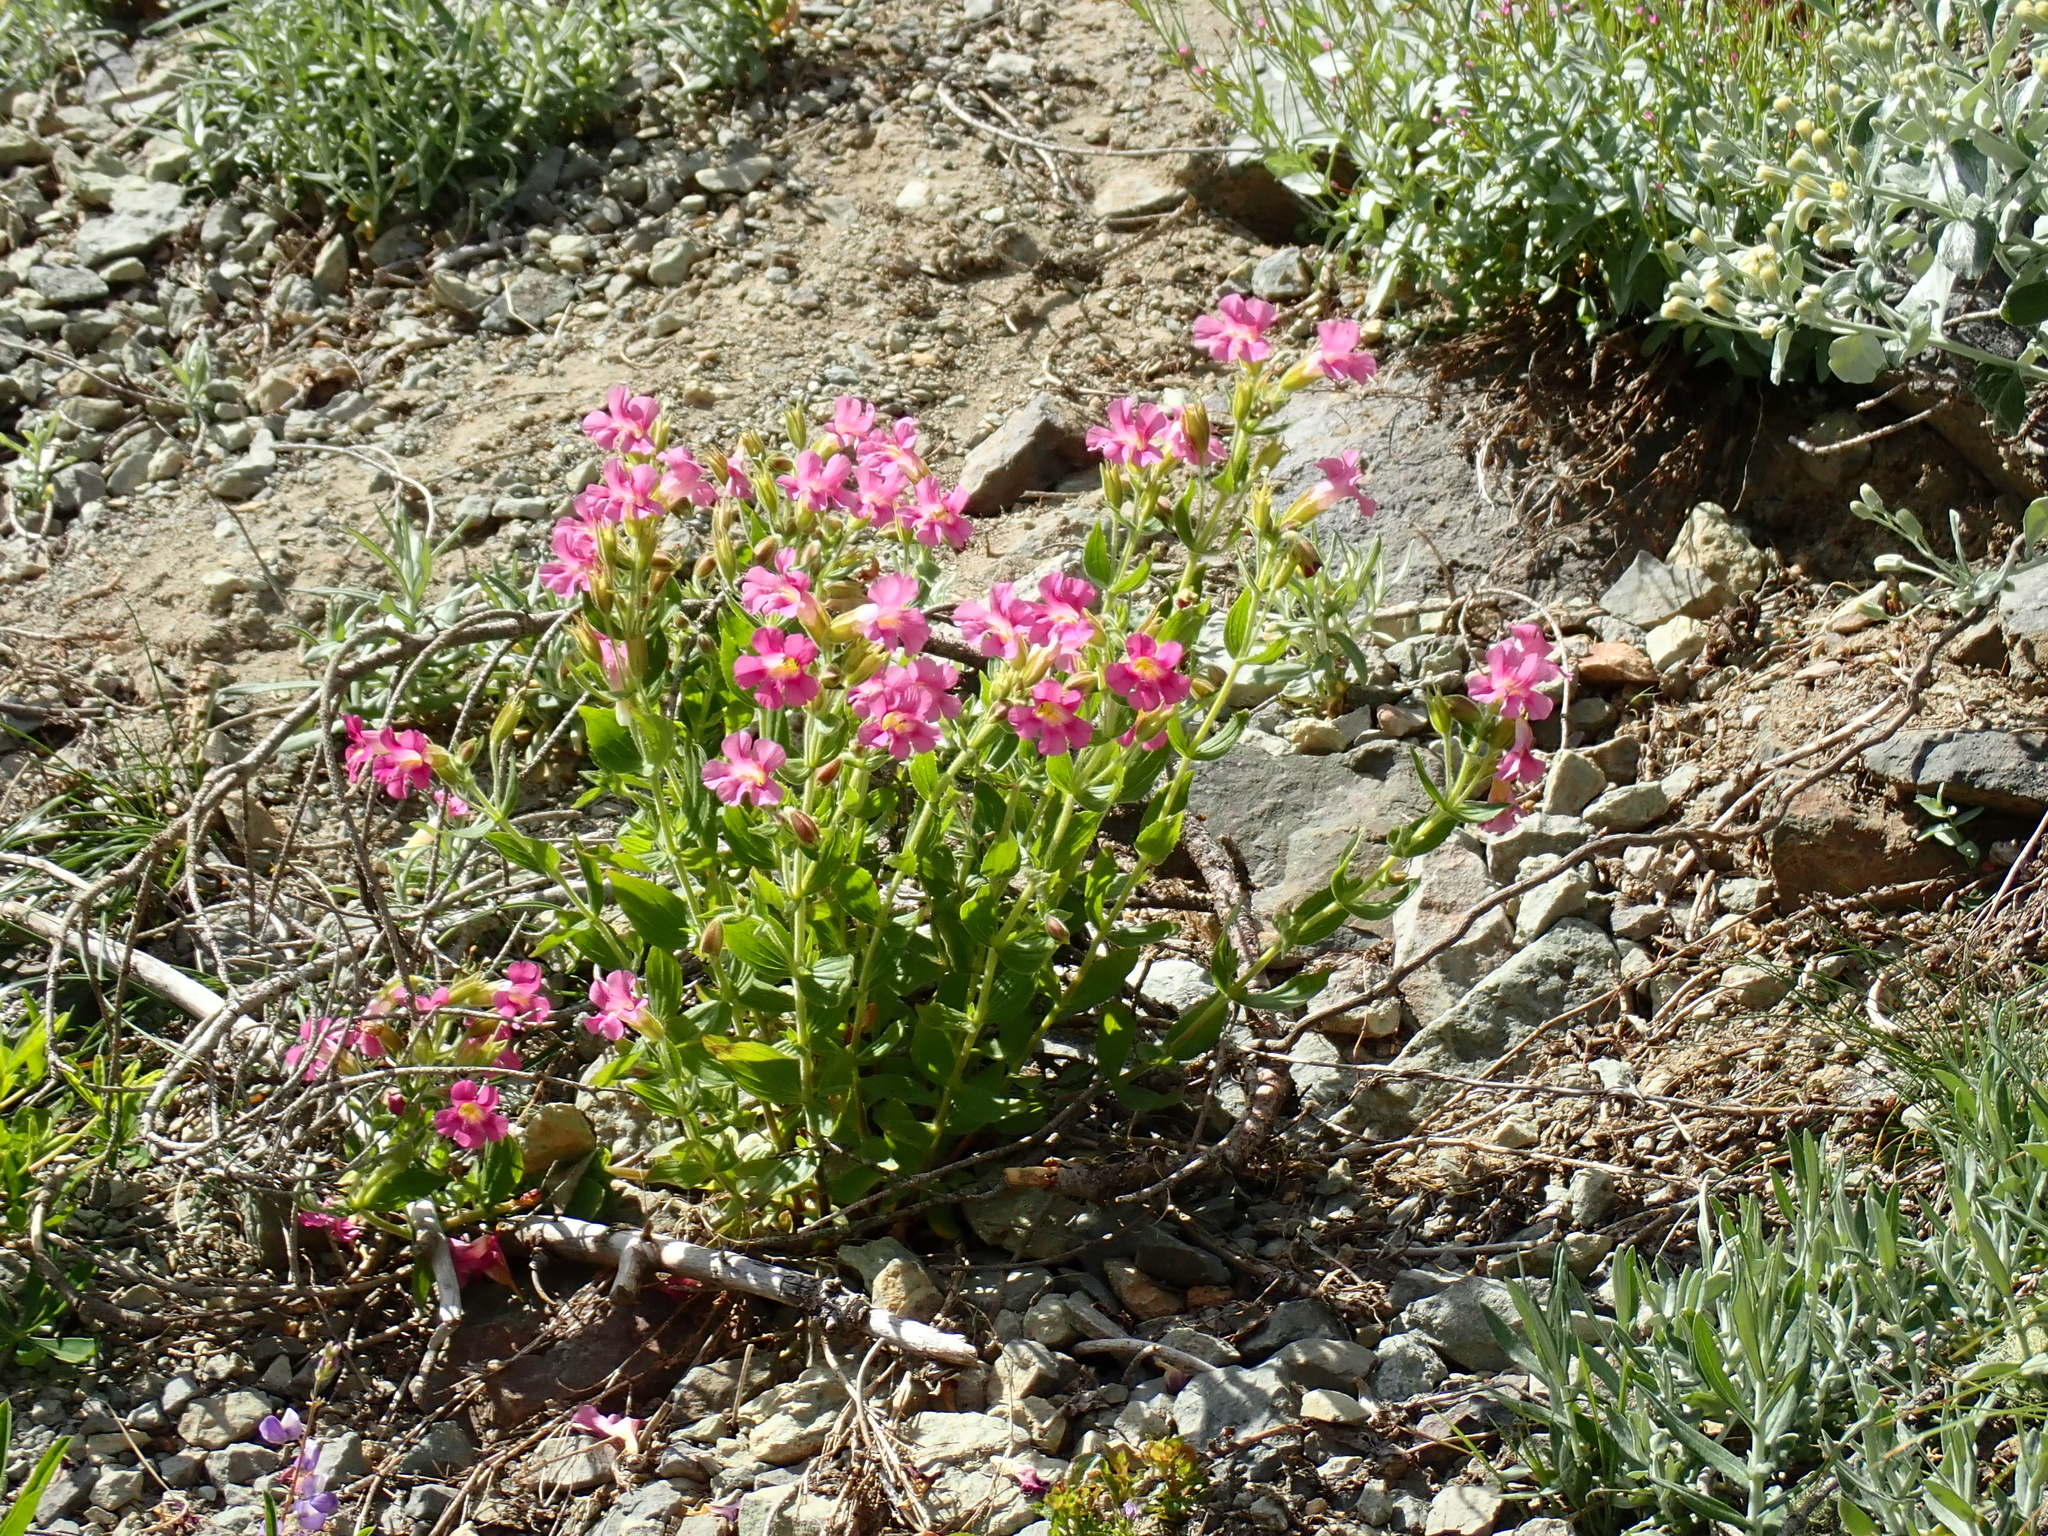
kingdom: Plantae
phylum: Tracheophyta
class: Magnoliopsida
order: Lamiales
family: Phrymaceae
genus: Erythranthe
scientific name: Erythranthe lewisii
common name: Lewis's monkey-flower
